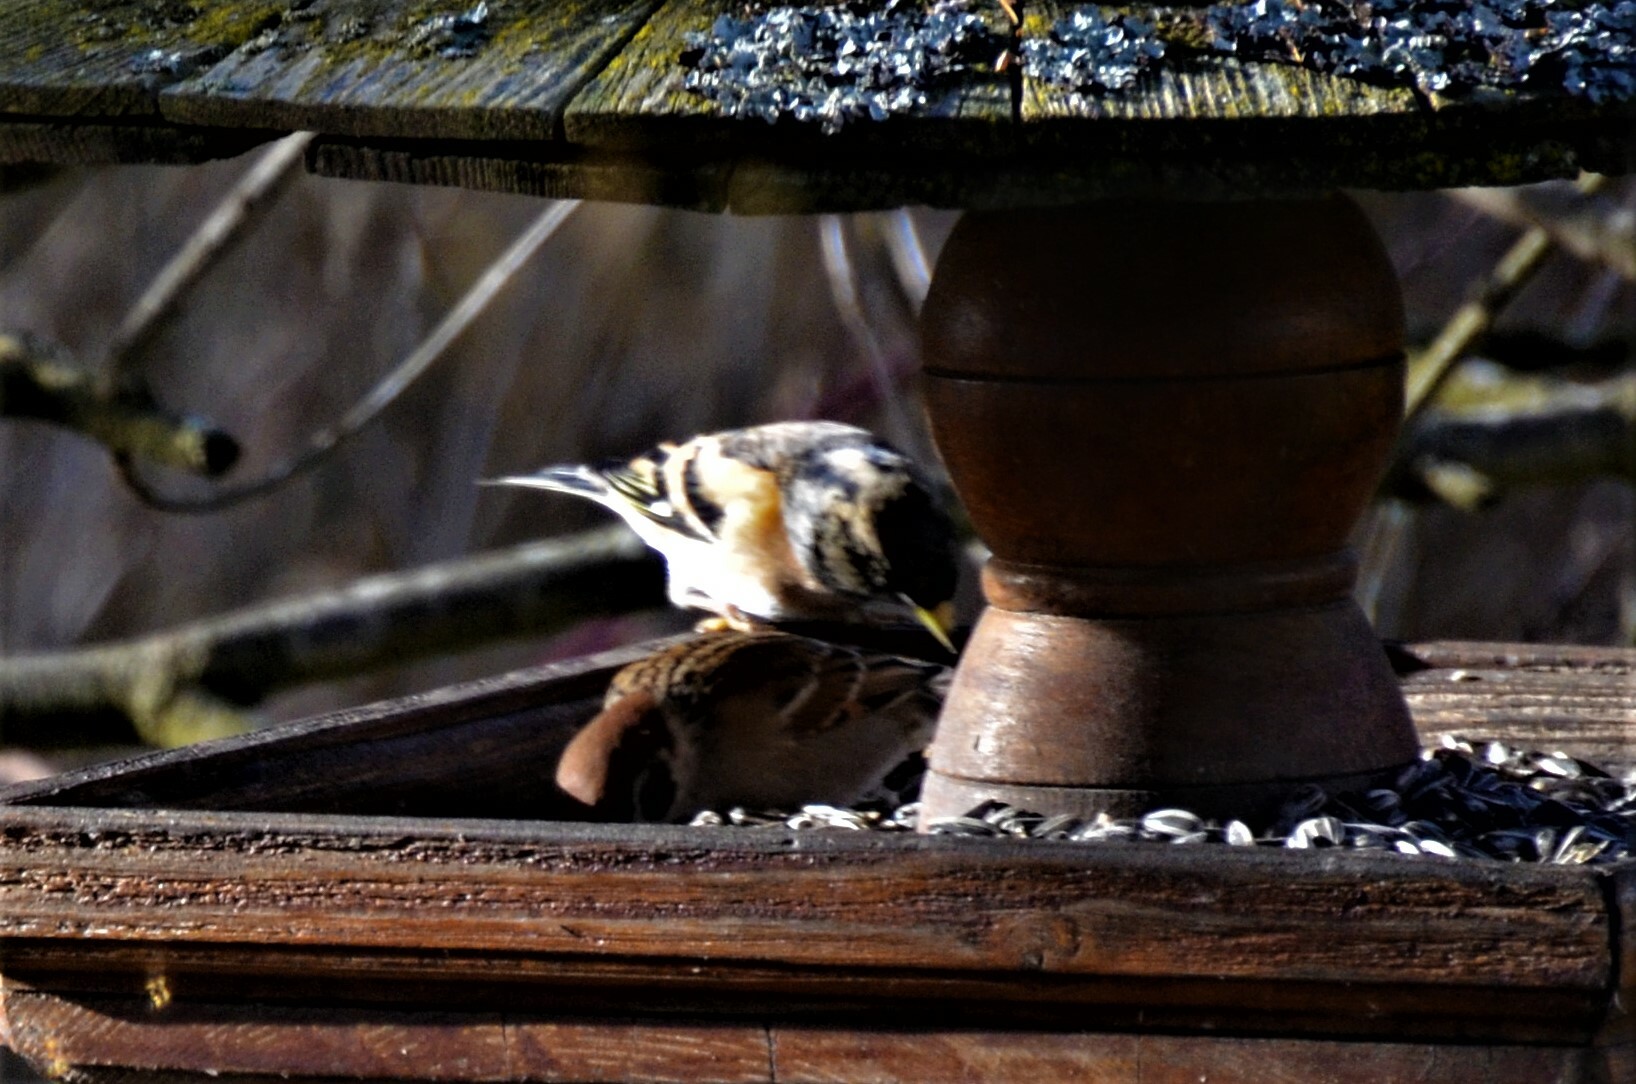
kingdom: Animalia
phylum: Chordata
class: Aves
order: Passeriformes
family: Fringillidae
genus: Fringilla
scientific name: Fringilla montifringilla
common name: Brambling
